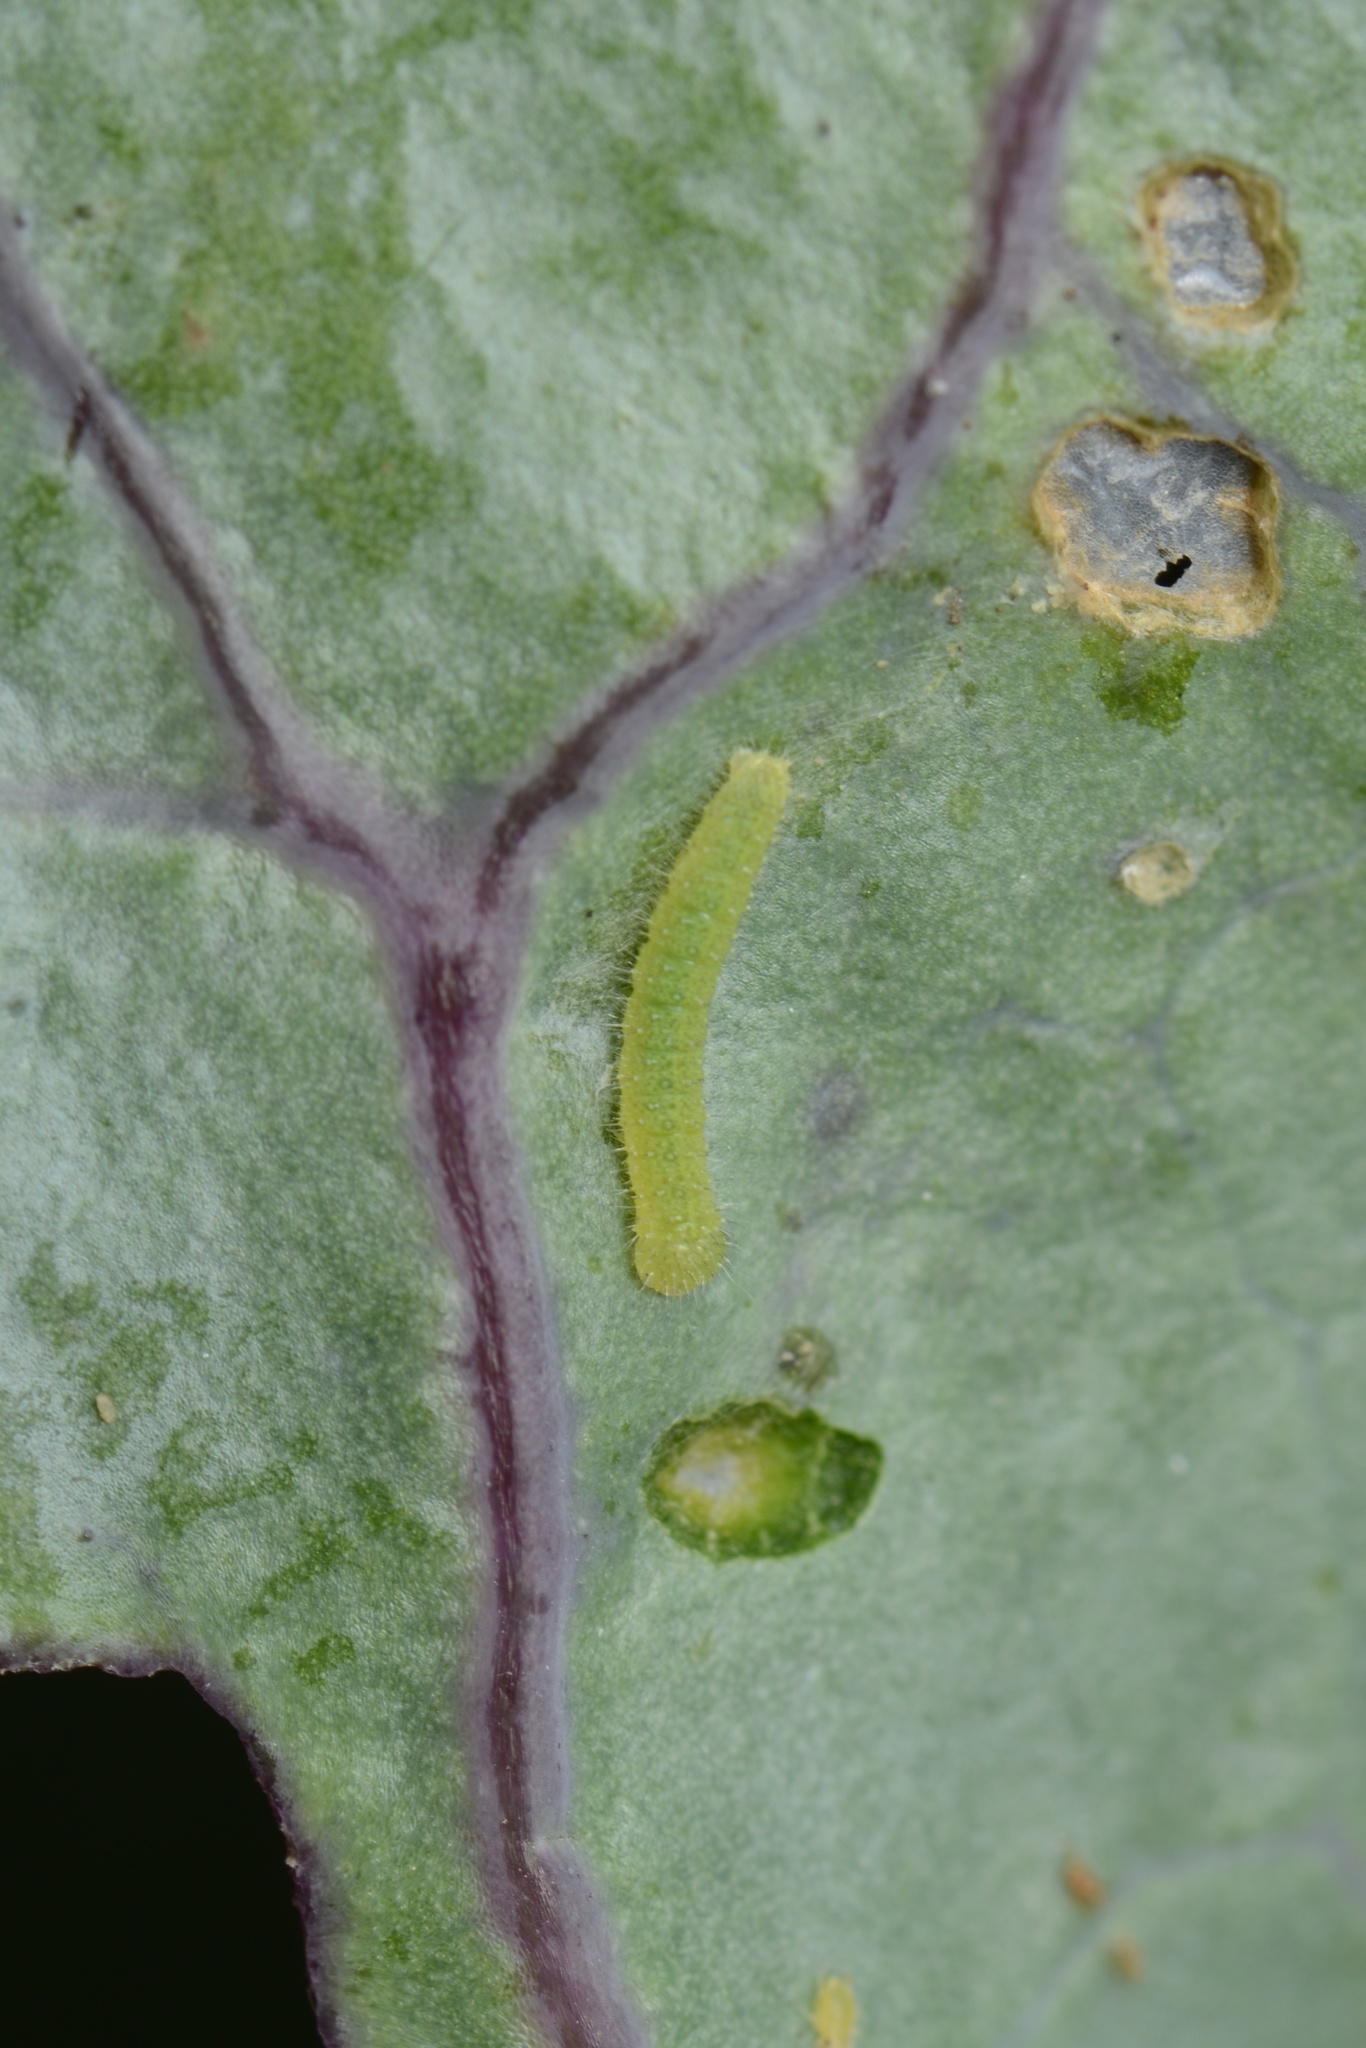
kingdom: Animalia
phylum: Arthropoda
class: Insecta
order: Lepidoptera
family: Pieridae
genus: Pieris
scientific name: Pieris rapae
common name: Small white
